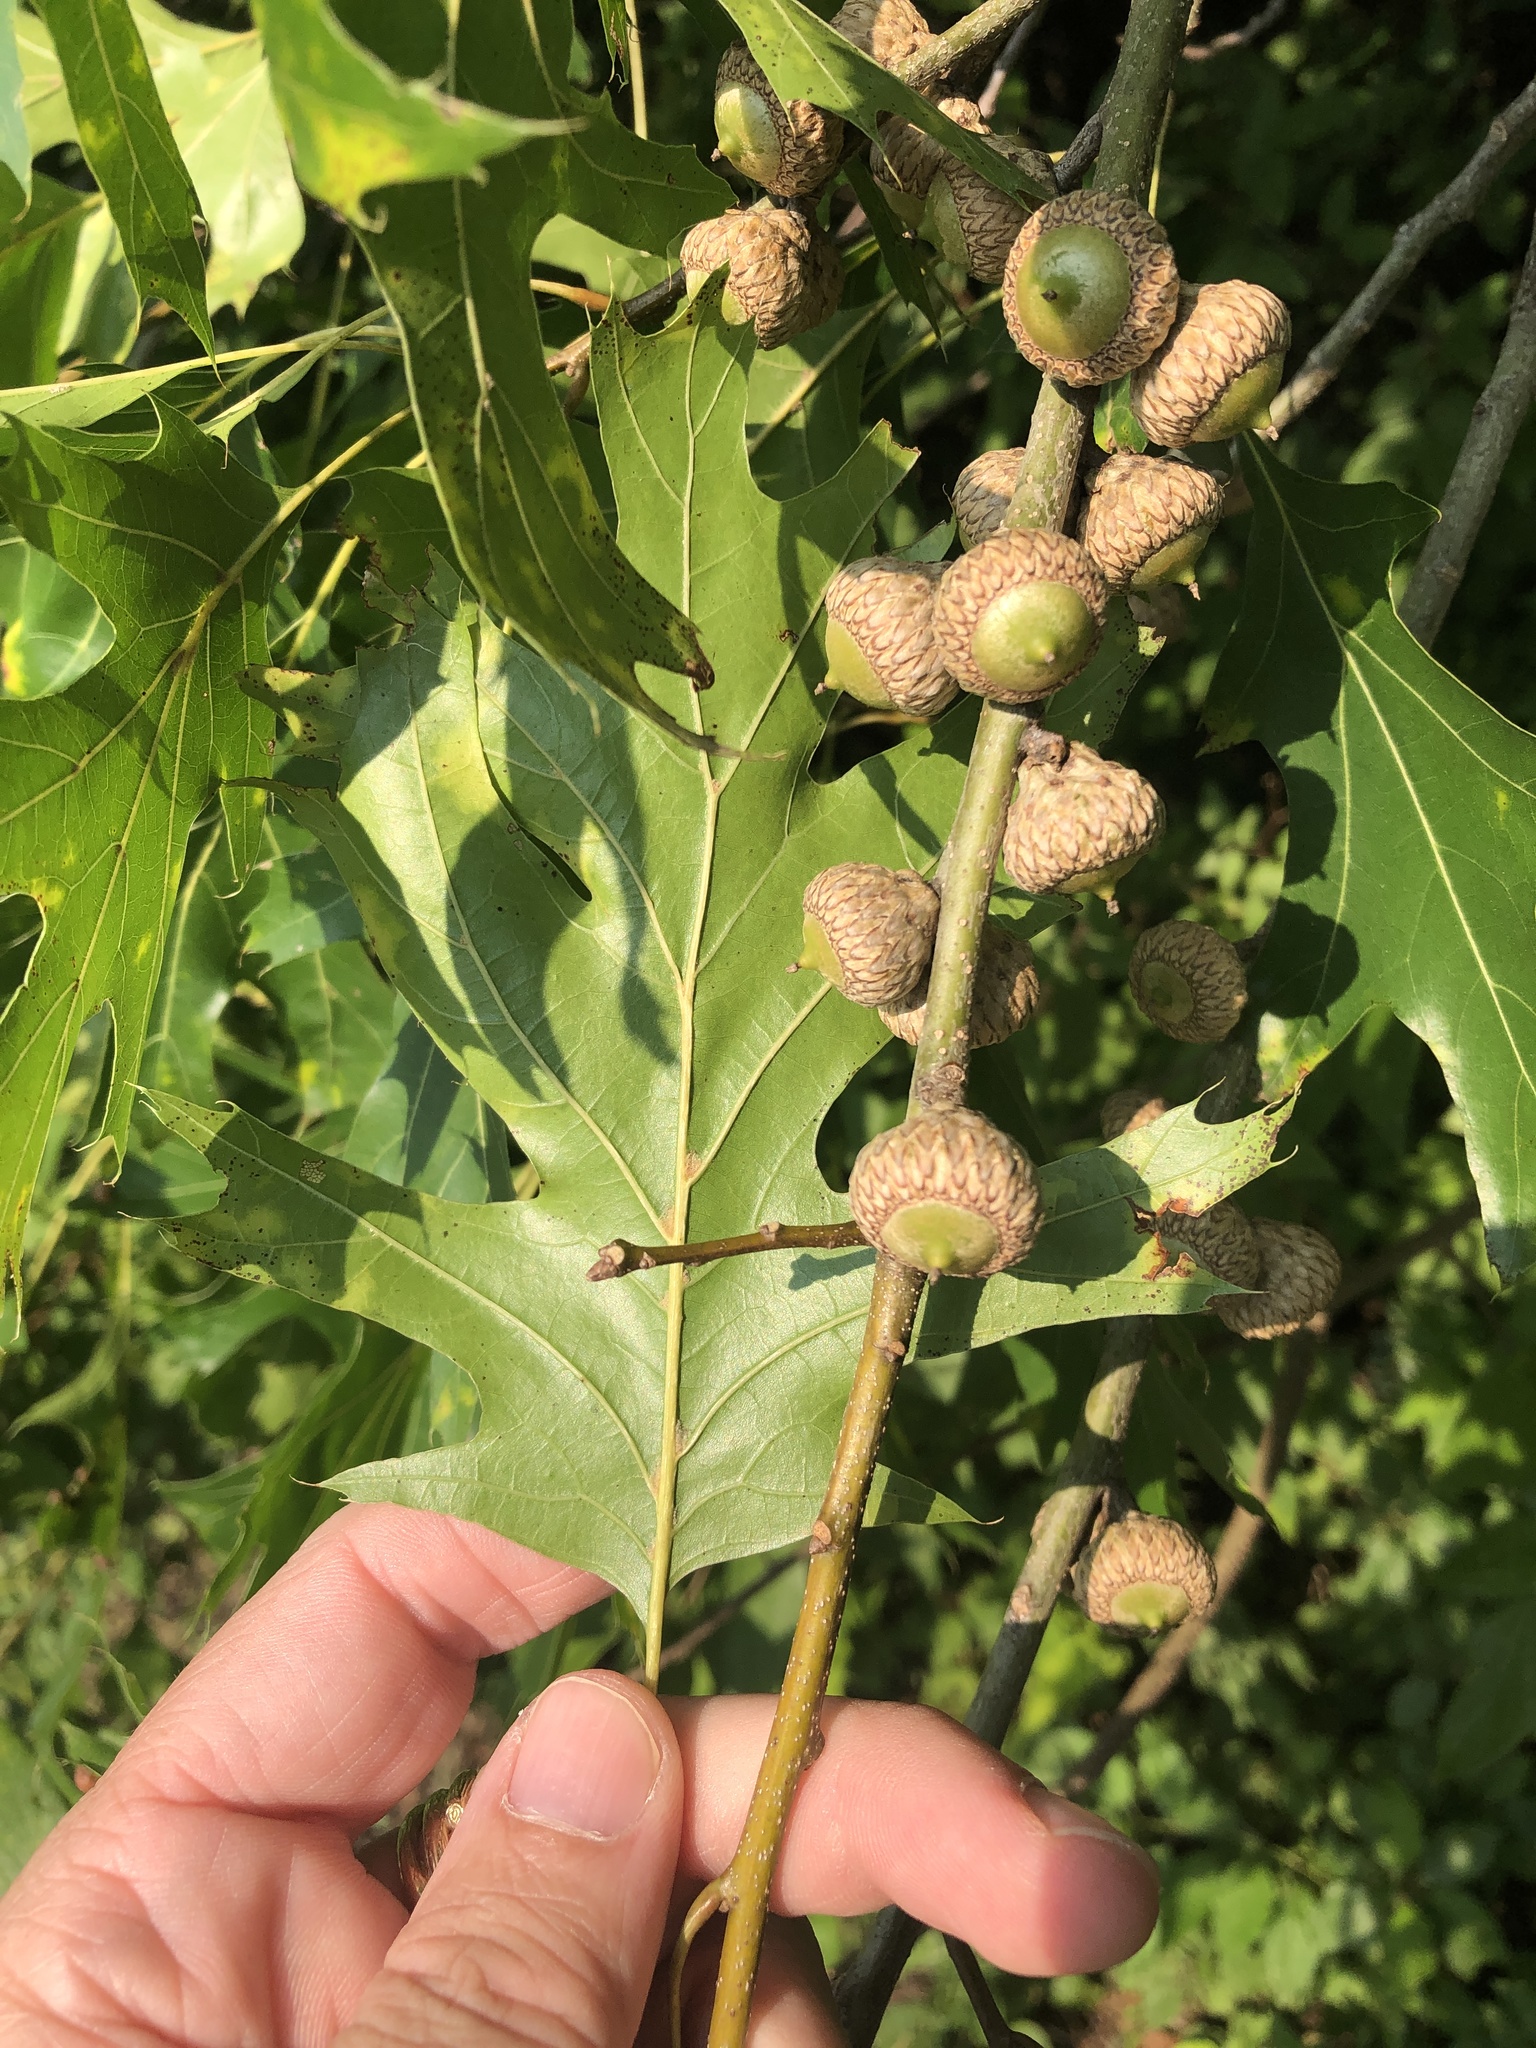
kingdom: Plantae
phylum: Tracheophyta
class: Magnoliopsida
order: Fagales
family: Fagaceae
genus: Quercus
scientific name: Quercus shumardii
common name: Shumard oak
